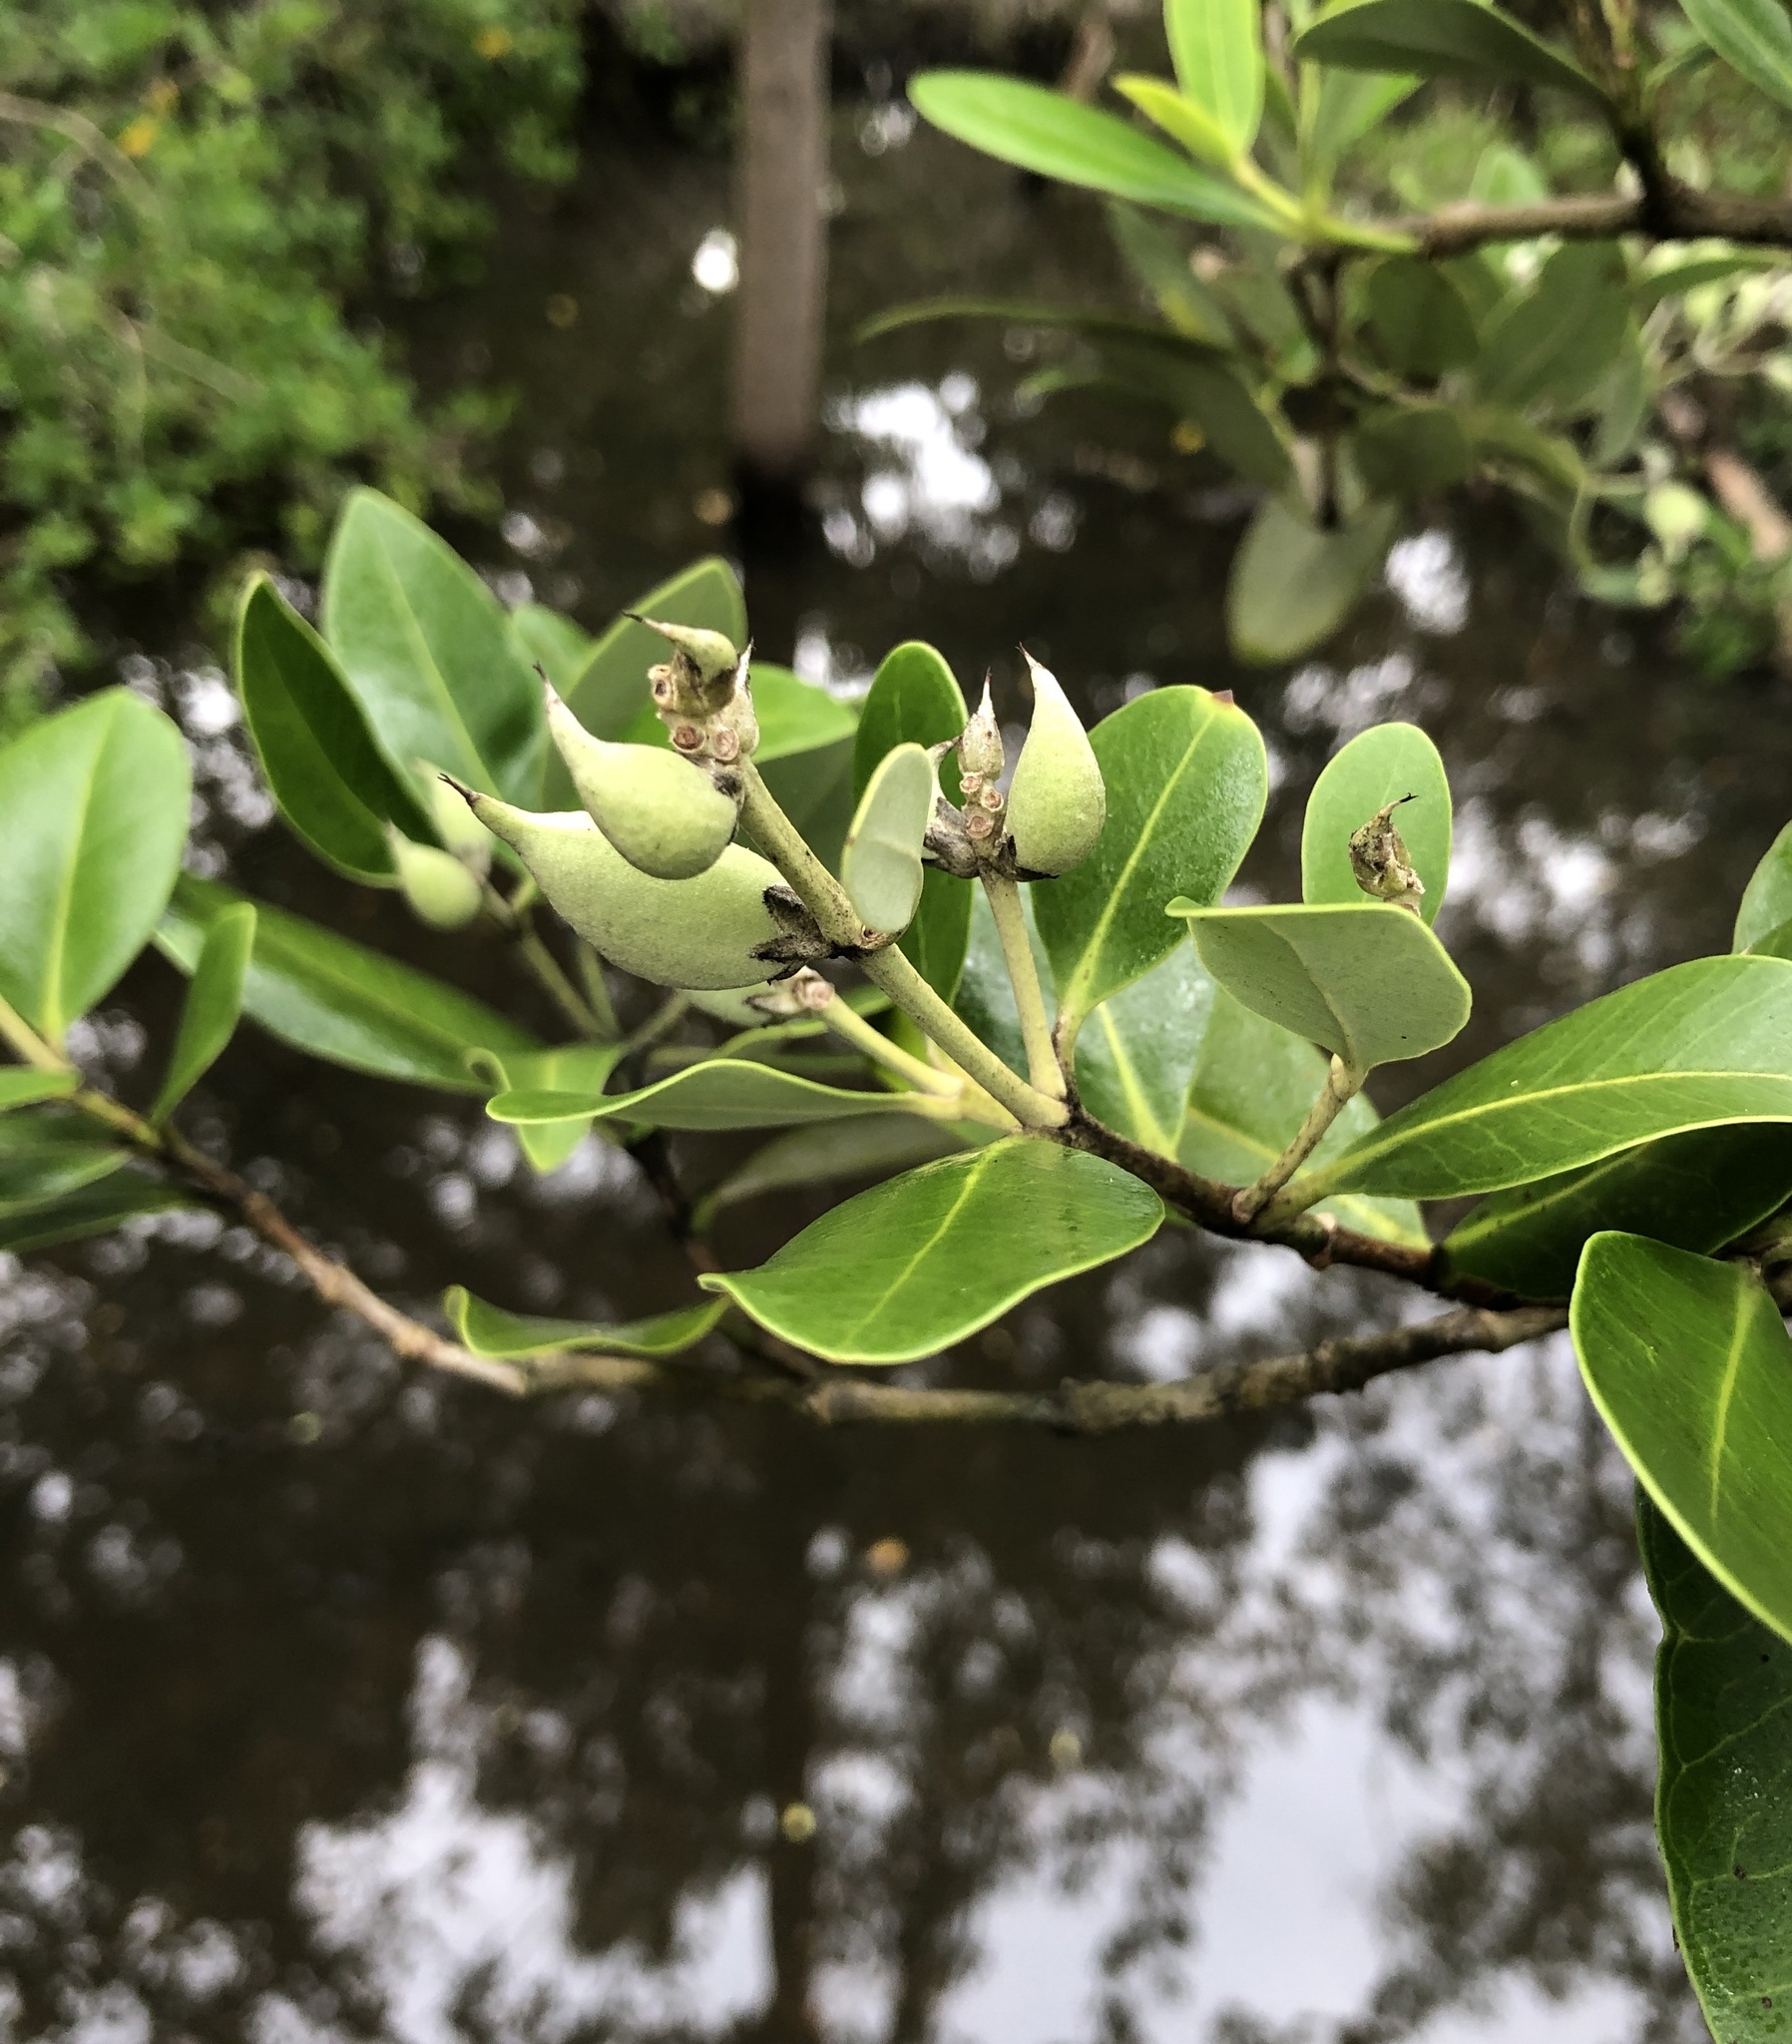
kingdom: Plantae
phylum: Tracheophyta
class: Magnoliopsida
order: Lamiales
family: Acanthaceae
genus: Avicennia
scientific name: Avicennia germinans
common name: Black mangrove
